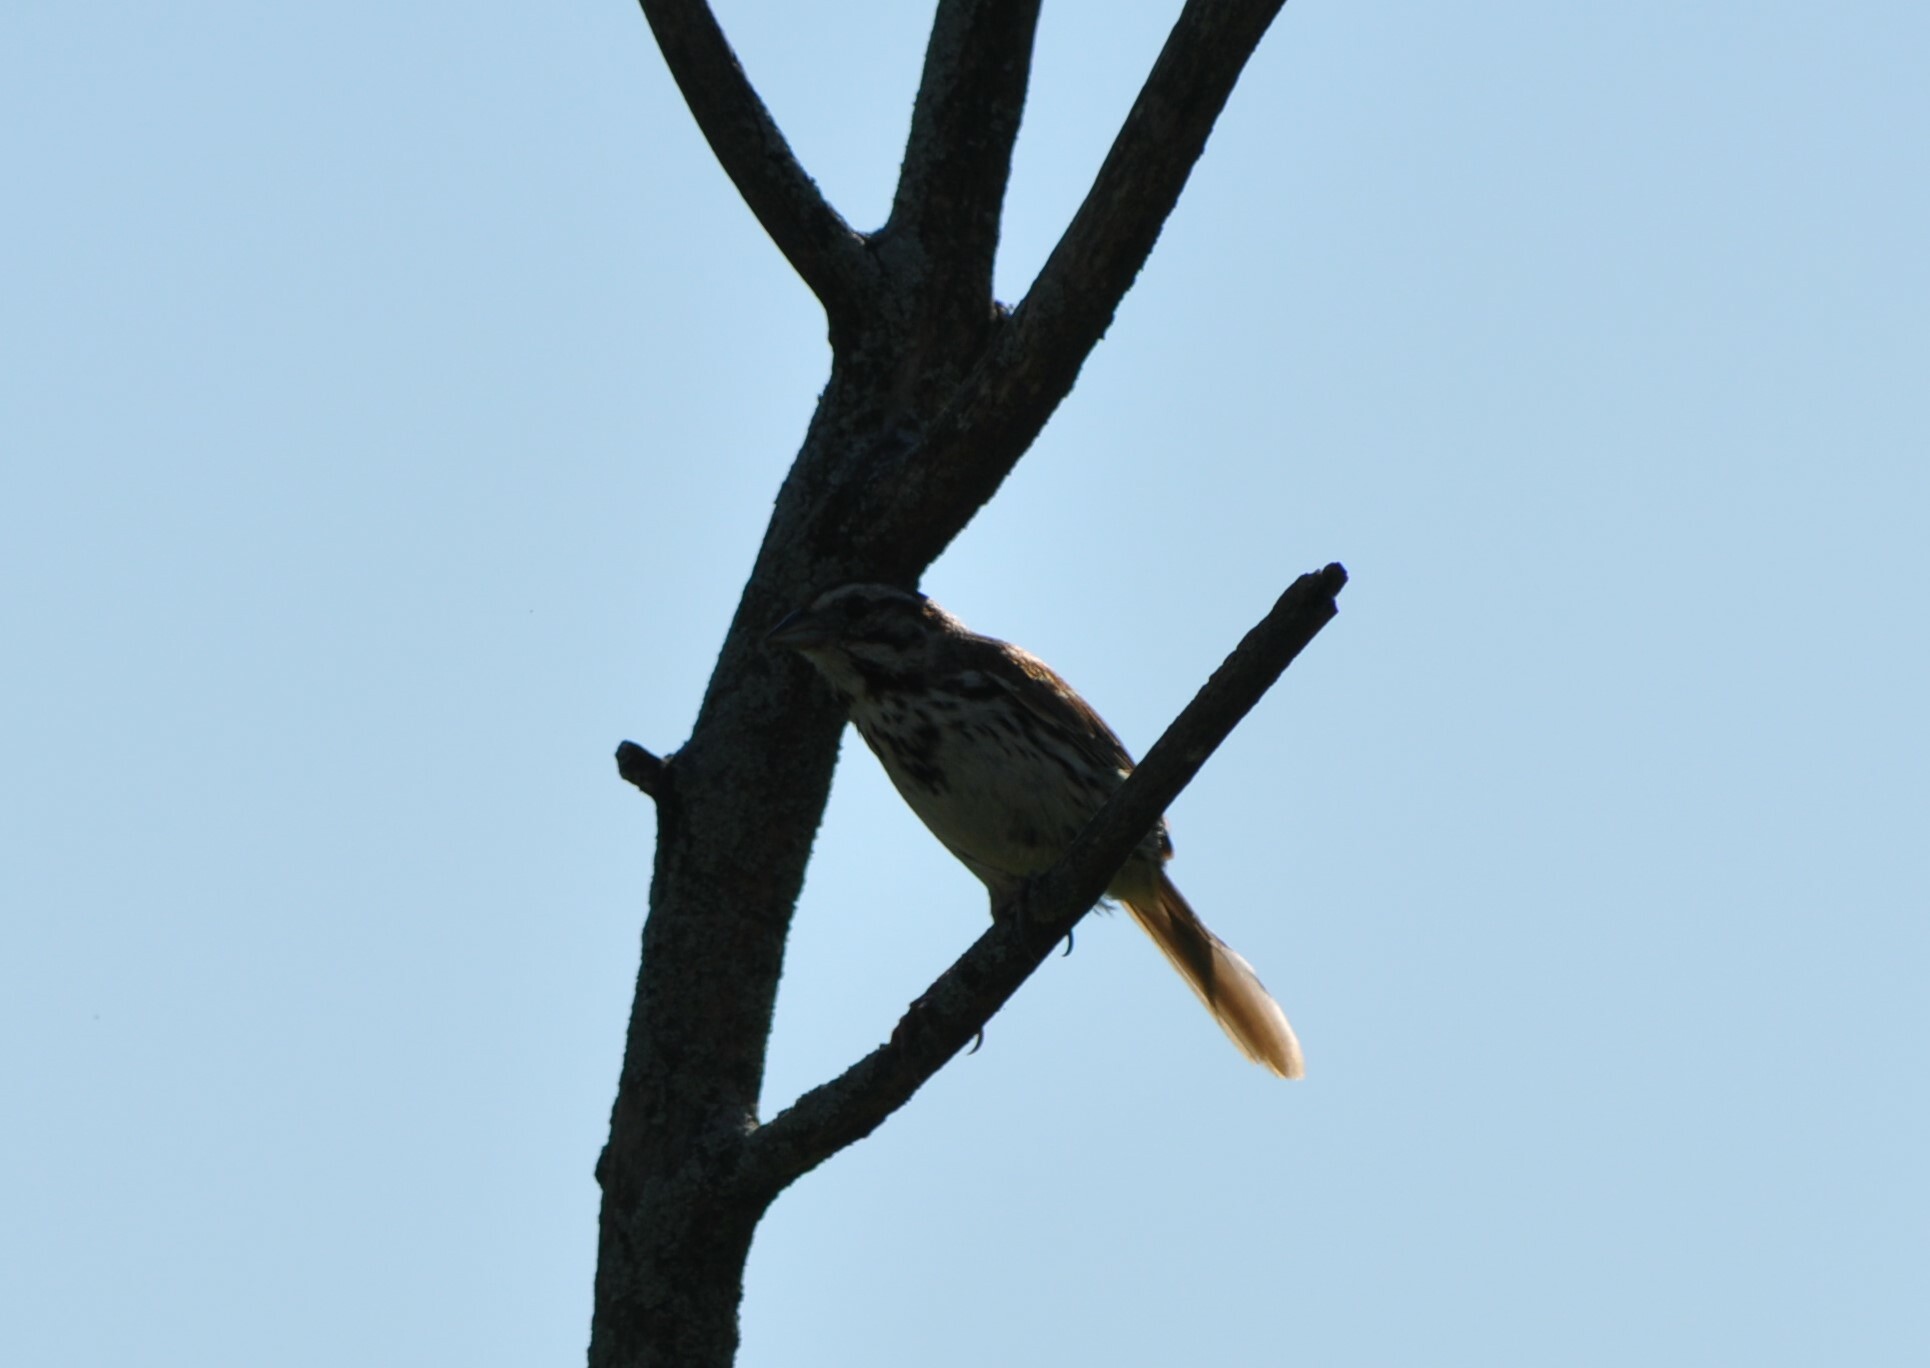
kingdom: Animalia
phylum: Chordata
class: Aves
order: Passeriformes
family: Passerellidae
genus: Melospiza
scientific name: Melospiza melodia
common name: Song sparrow
